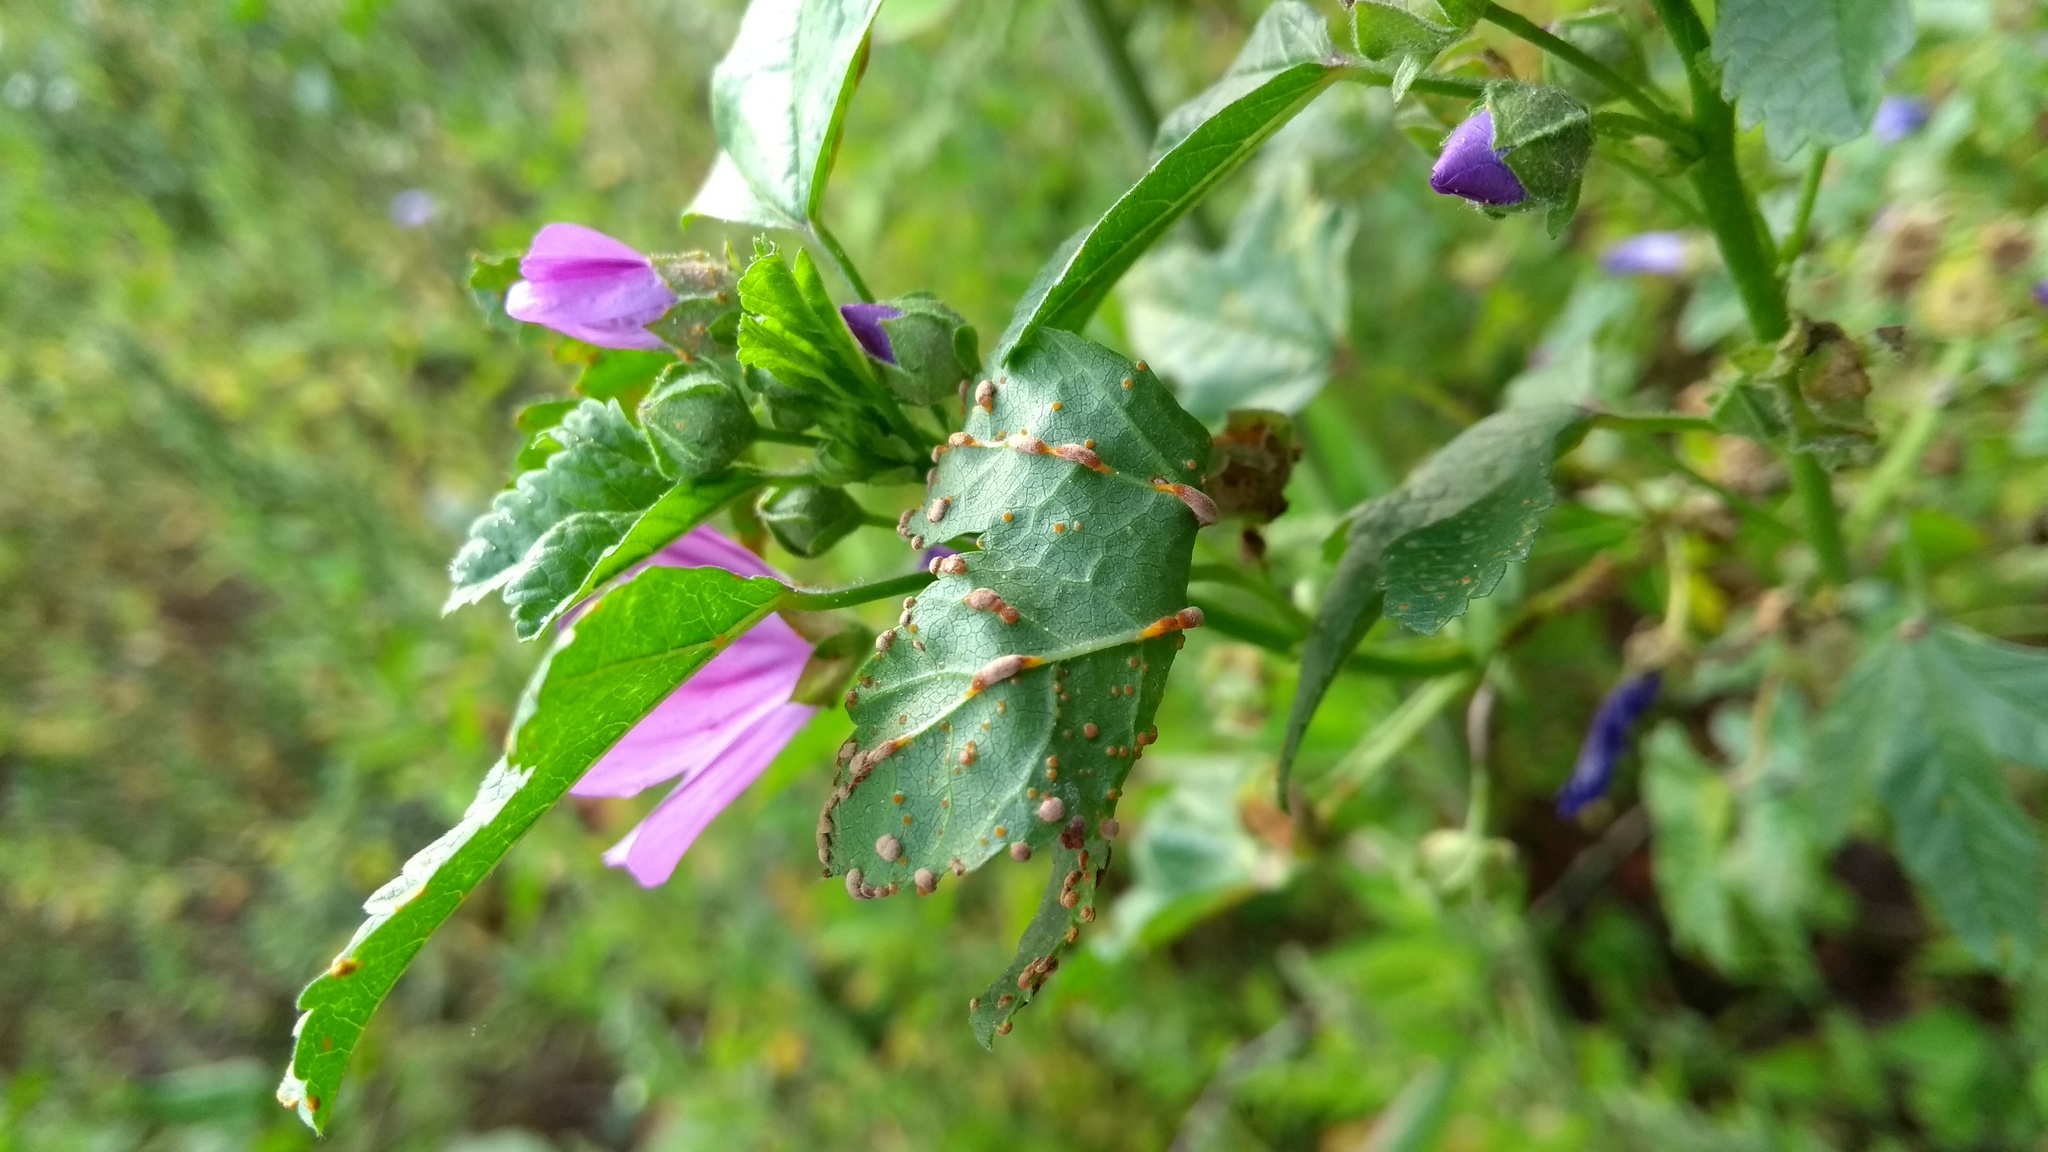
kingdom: Fungi
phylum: Basidiomycota
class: Pucciniomycetes
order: Pucciniales
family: Pucciniaceae
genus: Puccinia
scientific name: Puccinia malvacearum
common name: Hollyhock rust
